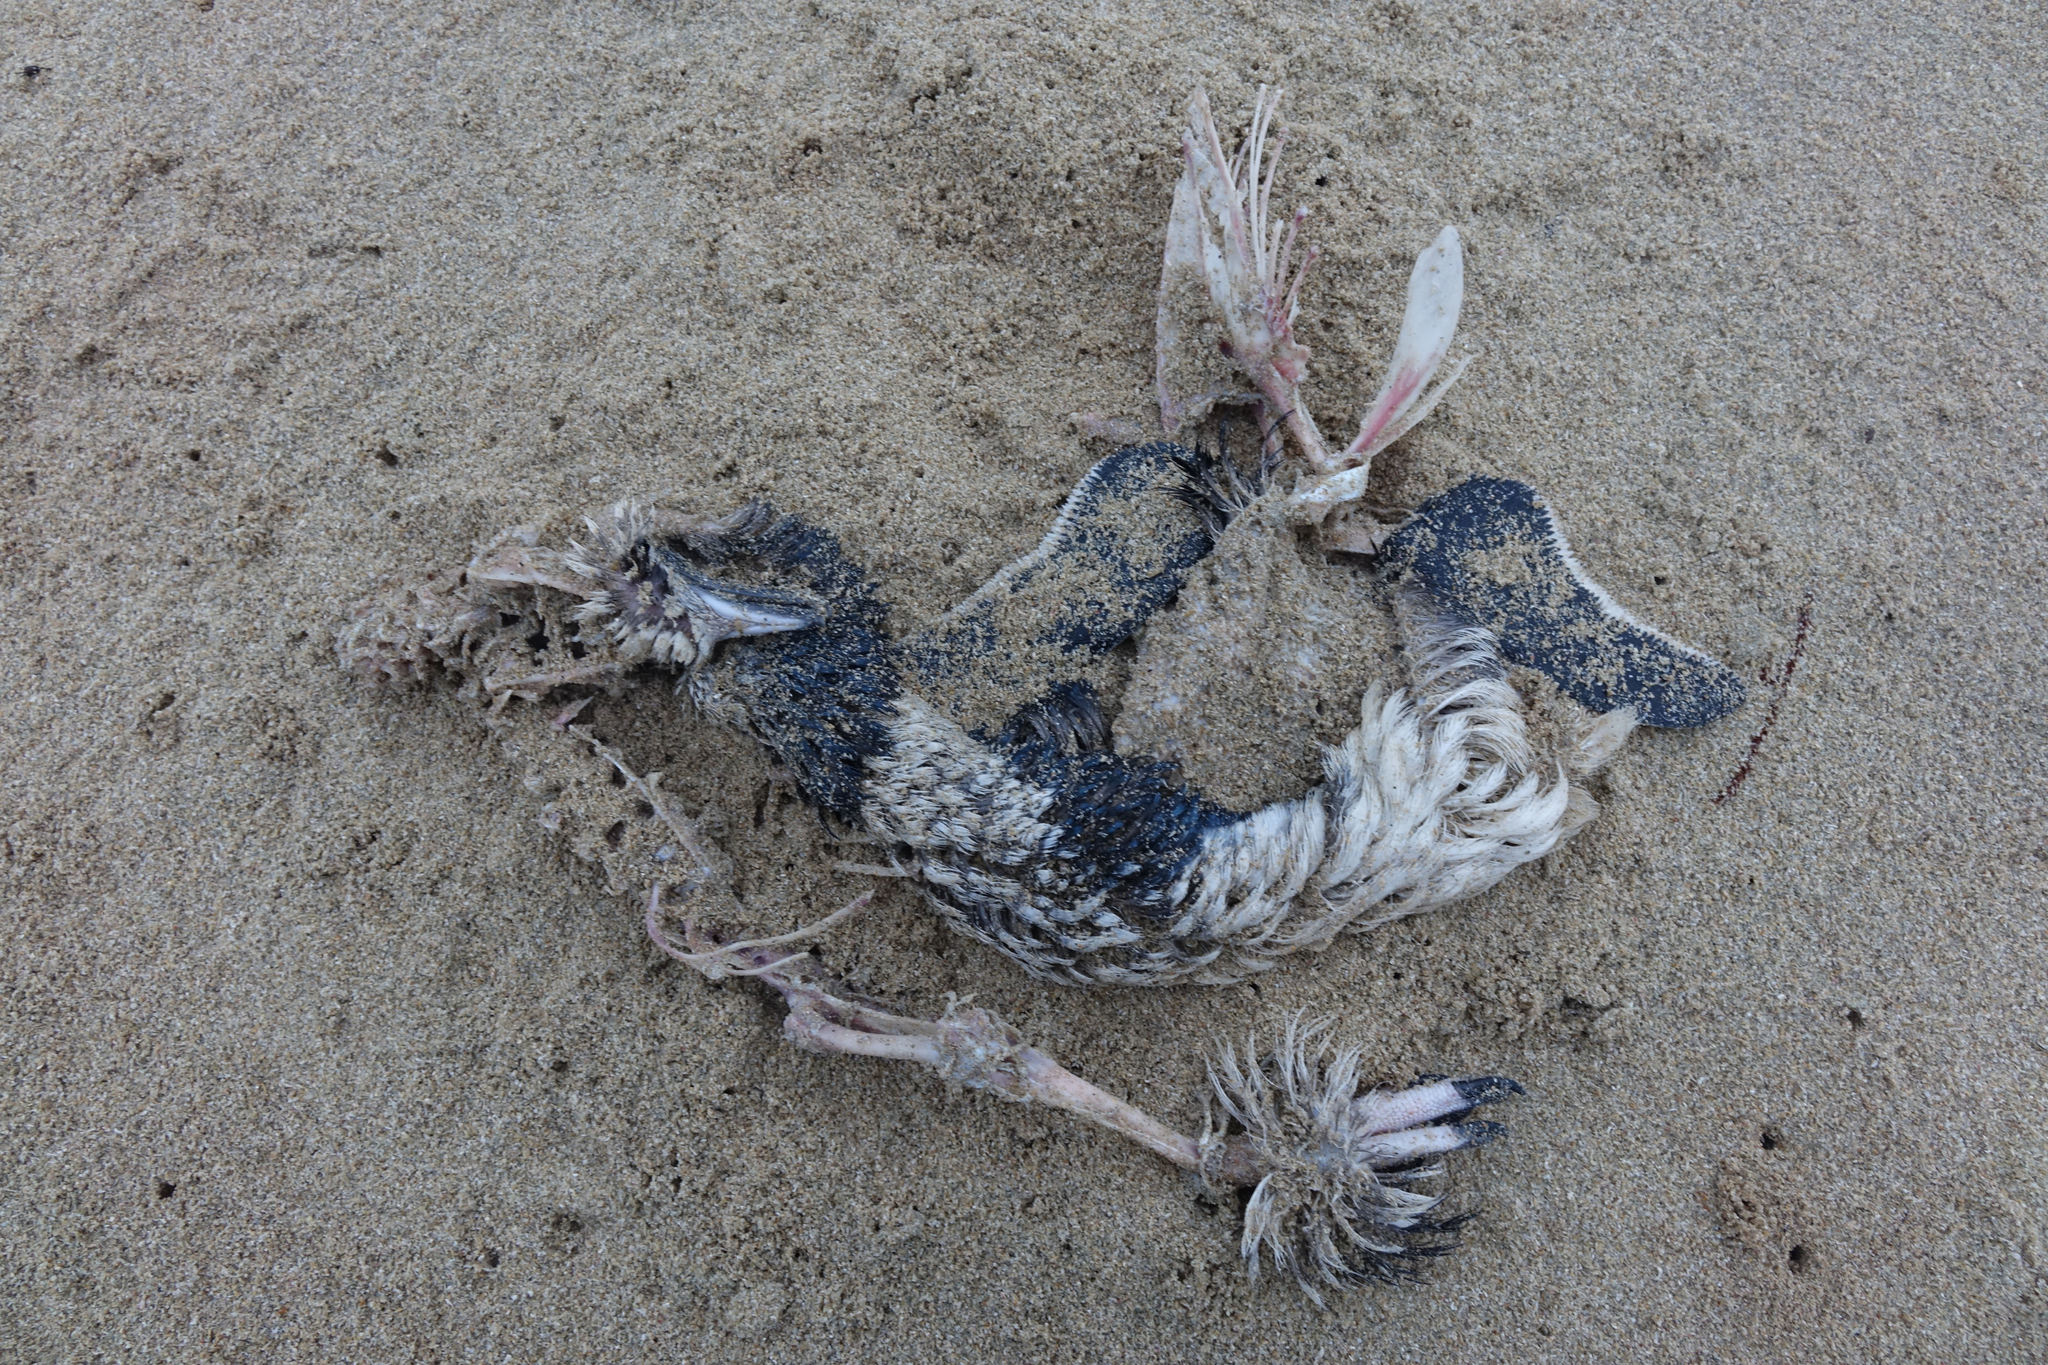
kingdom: Animalia
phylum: Chordata
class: Aves
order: Sphenisciformes
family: Spheniscidae
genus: Eudyptula
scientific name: Eudyptula minor
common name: Little penguin
